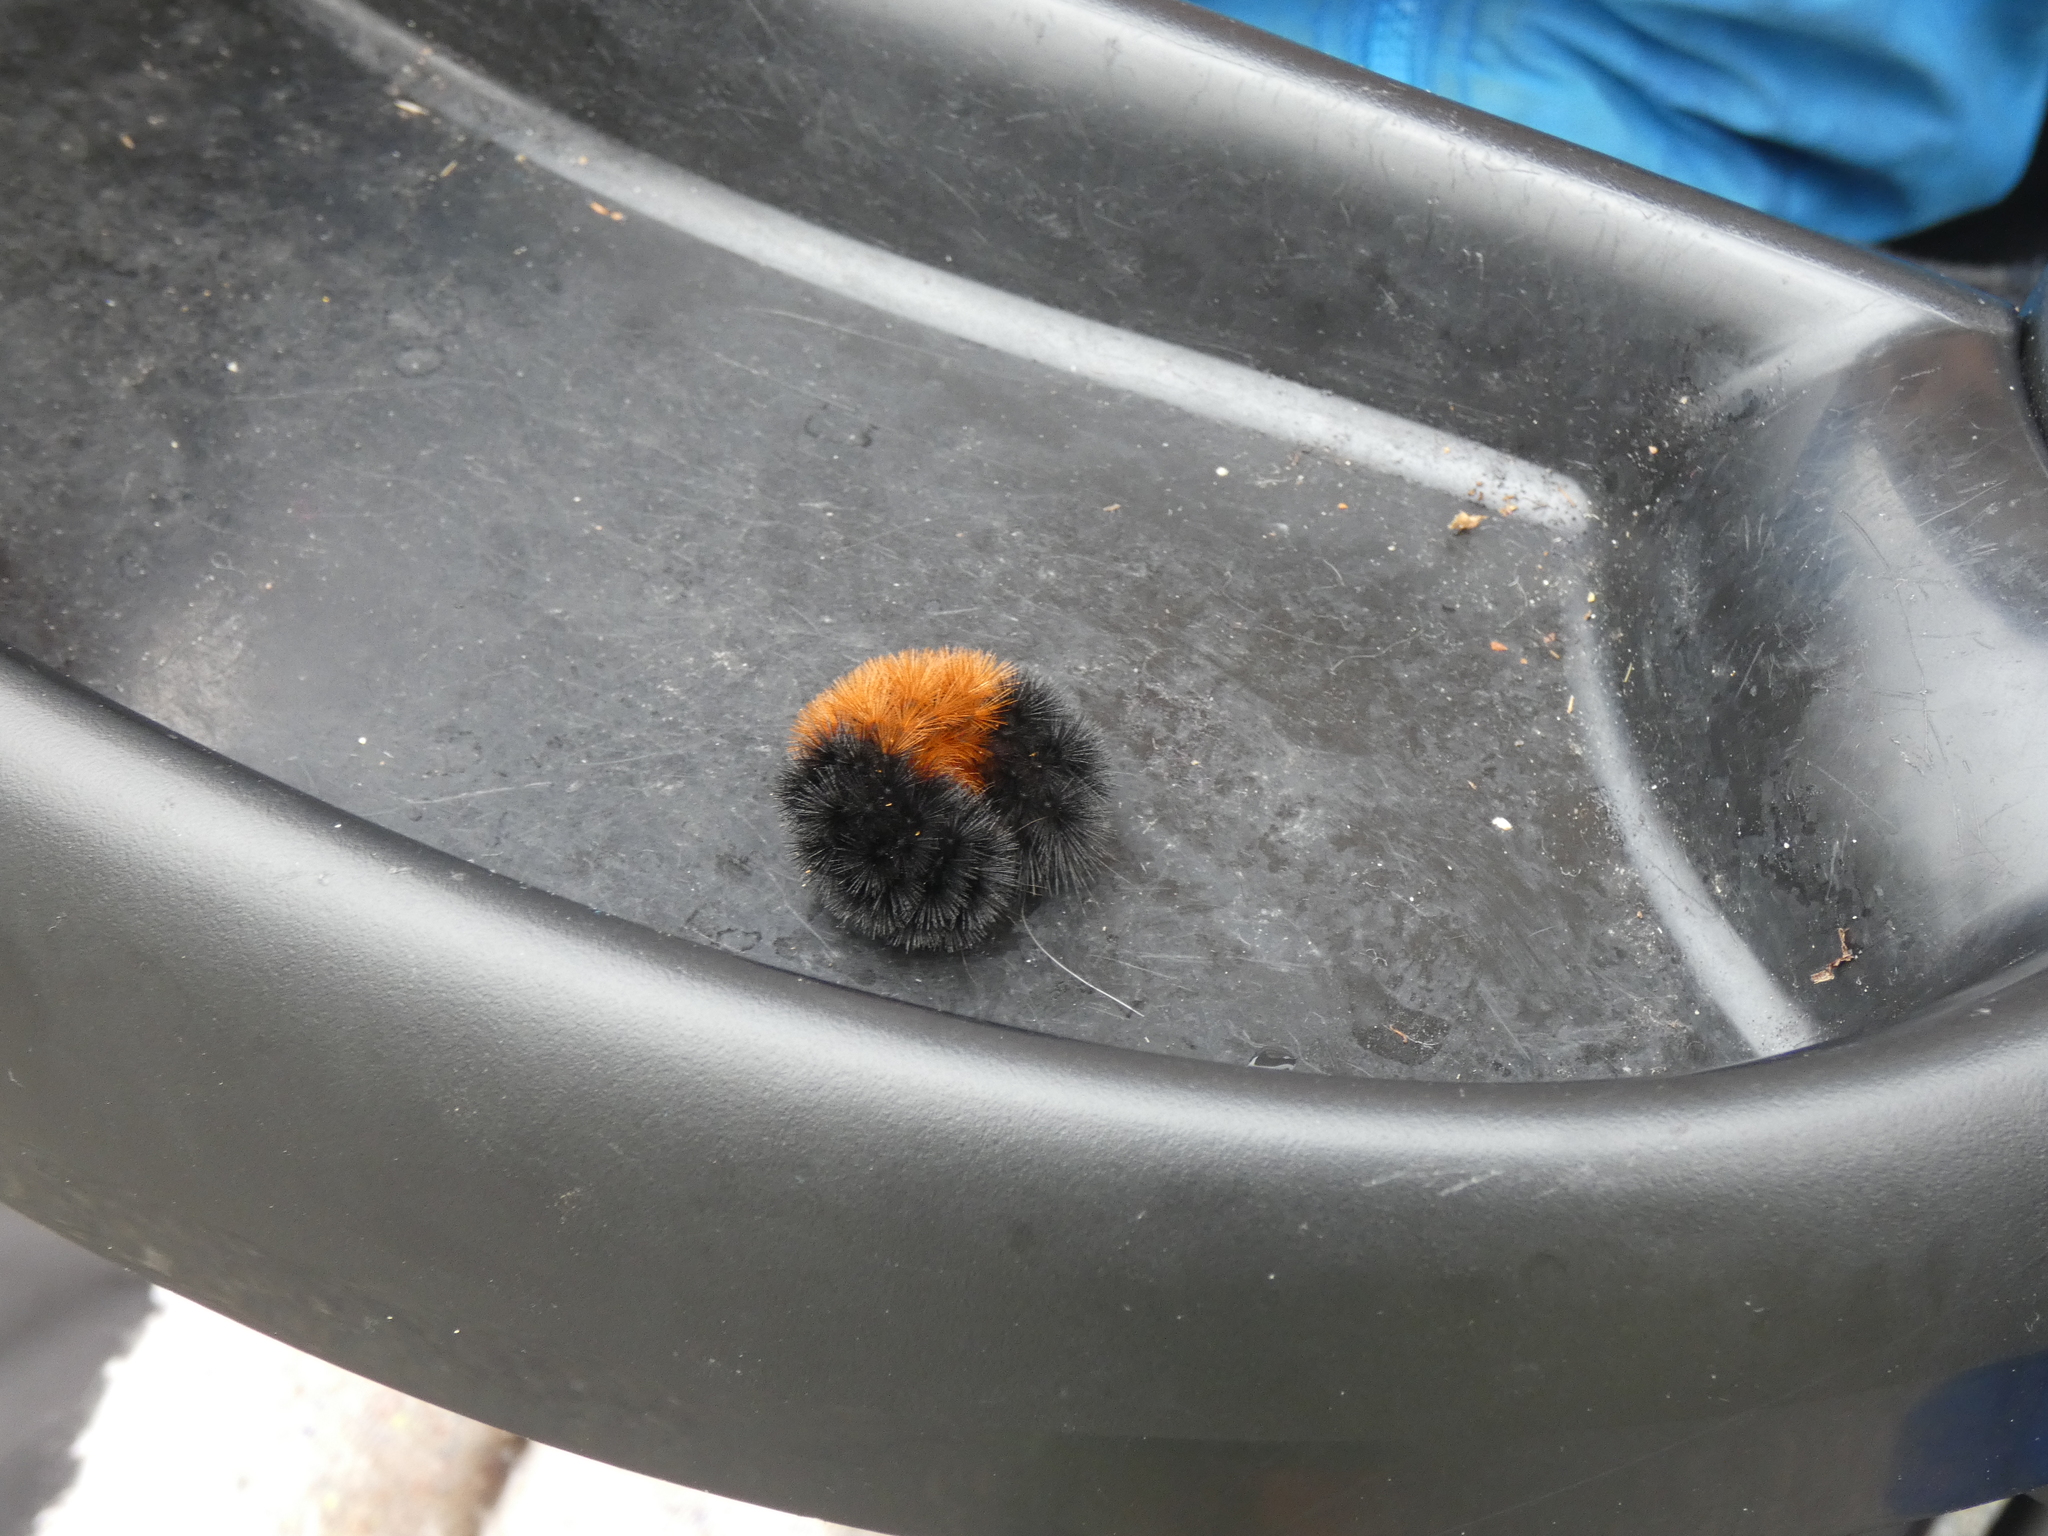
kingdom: Animalia
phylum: Arthropoda
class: Insecta
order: Lepidoptera
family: Erebidae
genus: Pyrrharctia
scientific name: Pyrrharctia isabella
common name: Isabella tiger moth
